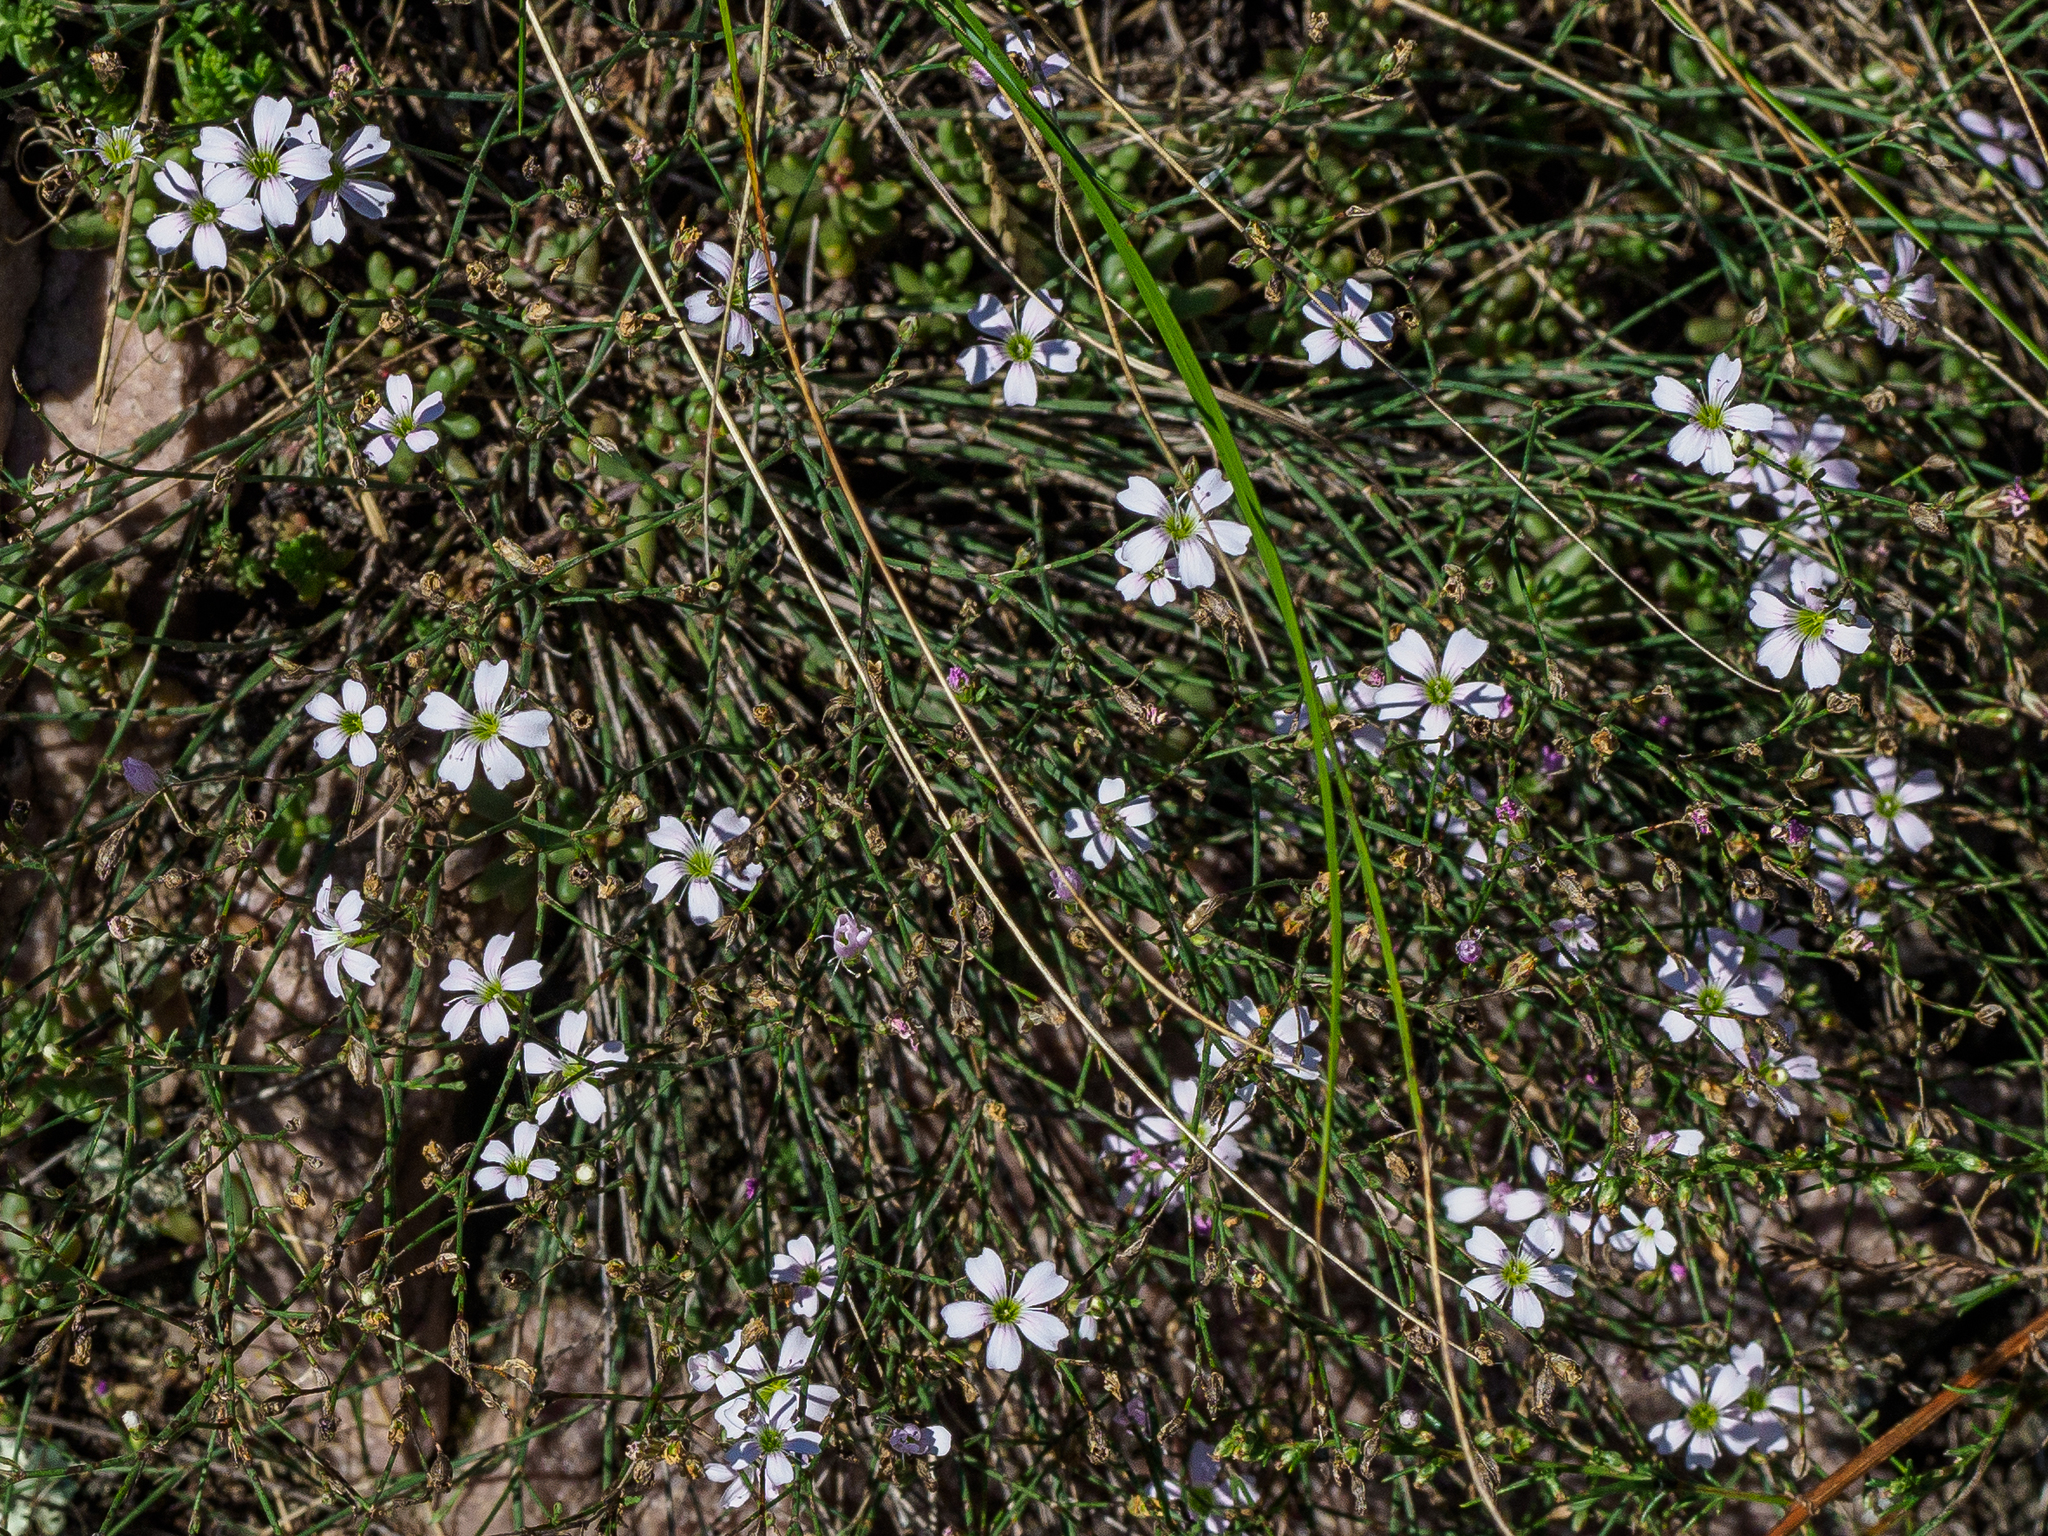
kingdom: Plantae
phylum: Tracheophyta
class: Magnoliopsida
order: Caryophyllales
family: Caryophyllaceae
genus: Petrorhagia
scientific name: Petrorhagia saxifraga
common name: Tunicflower
